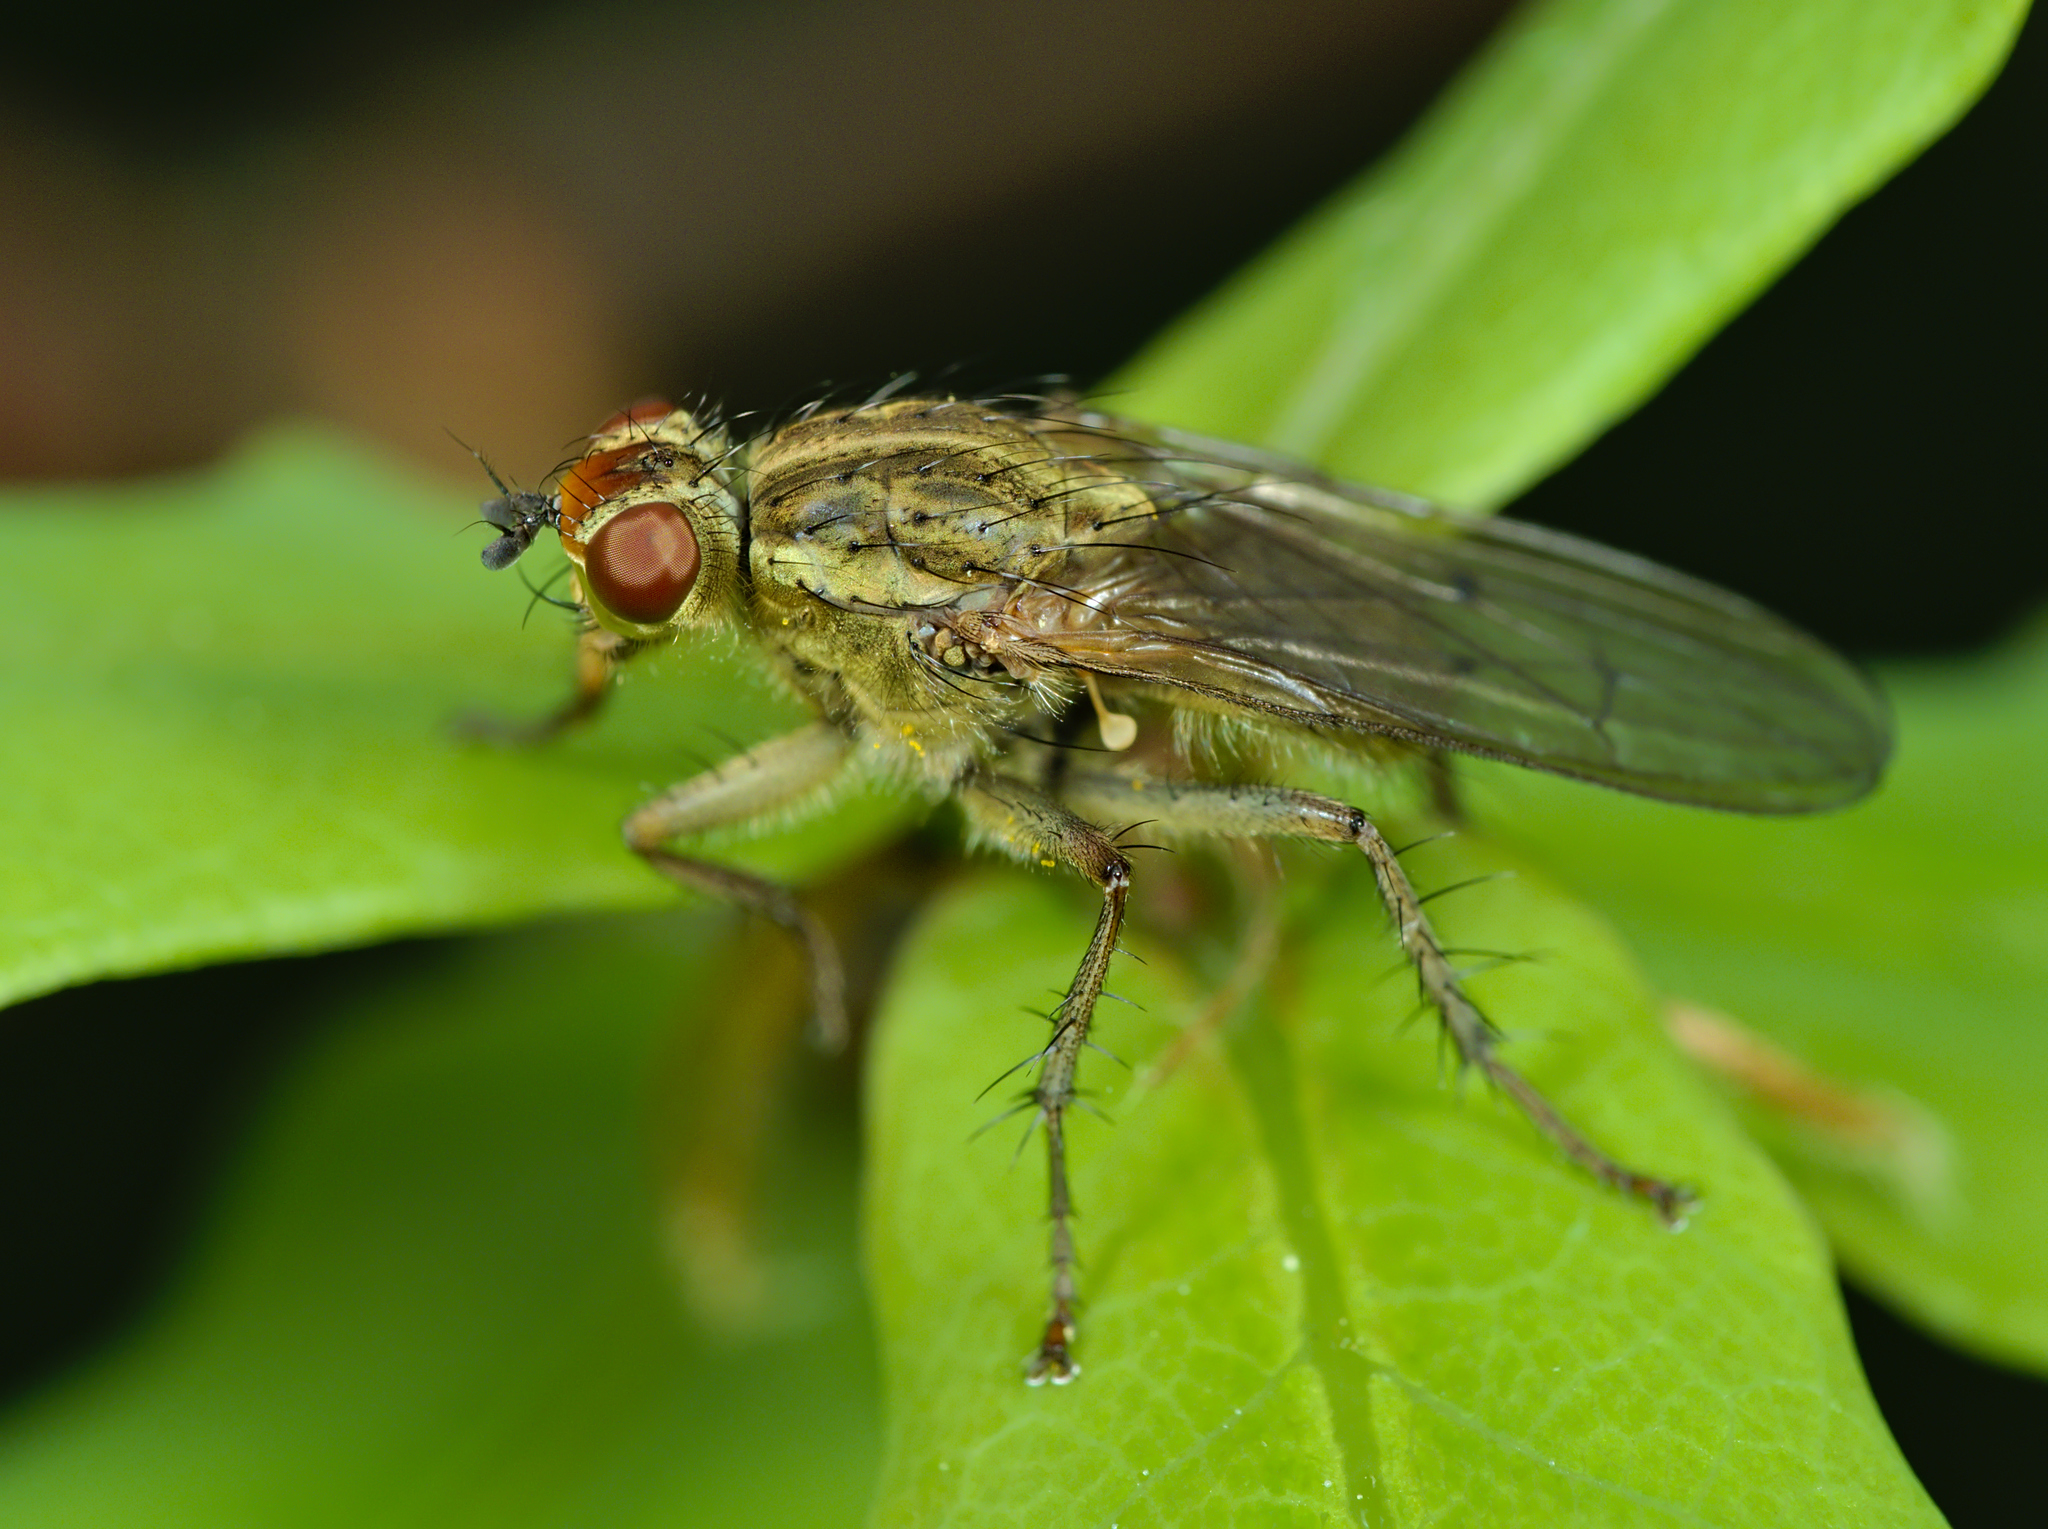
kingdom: Animalia
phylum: Arthropoda
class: Insecta
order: Diptera
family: Scathophagidae
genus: Scathophaga
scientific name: Scathophaga stercoraria
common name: Yellow dung fly
